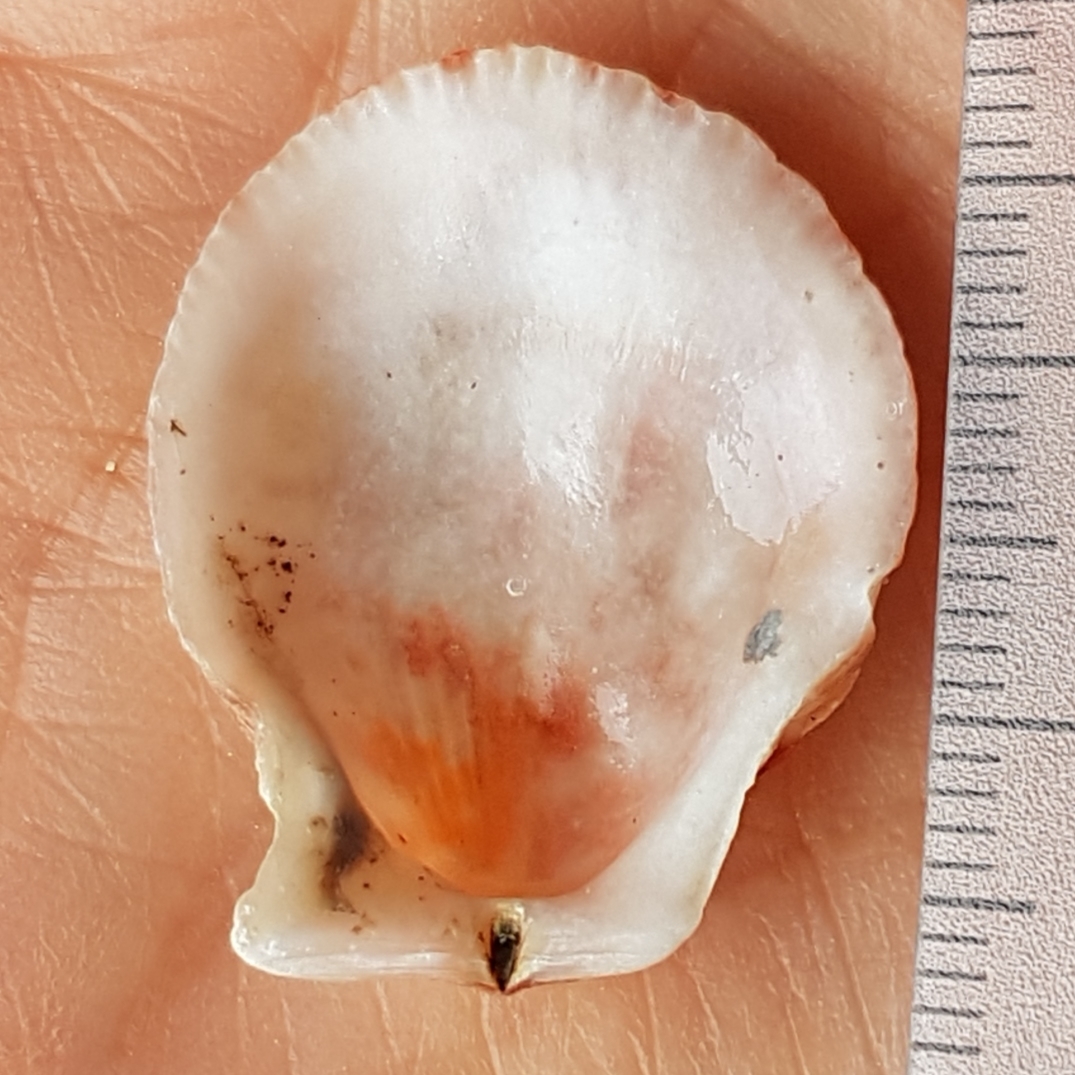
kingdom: Animalia
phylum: Mollusca
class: Bivalvia
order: Pectinida
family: Pectinidae
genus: Talochlamys
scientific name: Talochlamys pusio
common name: Hunchback scallop
